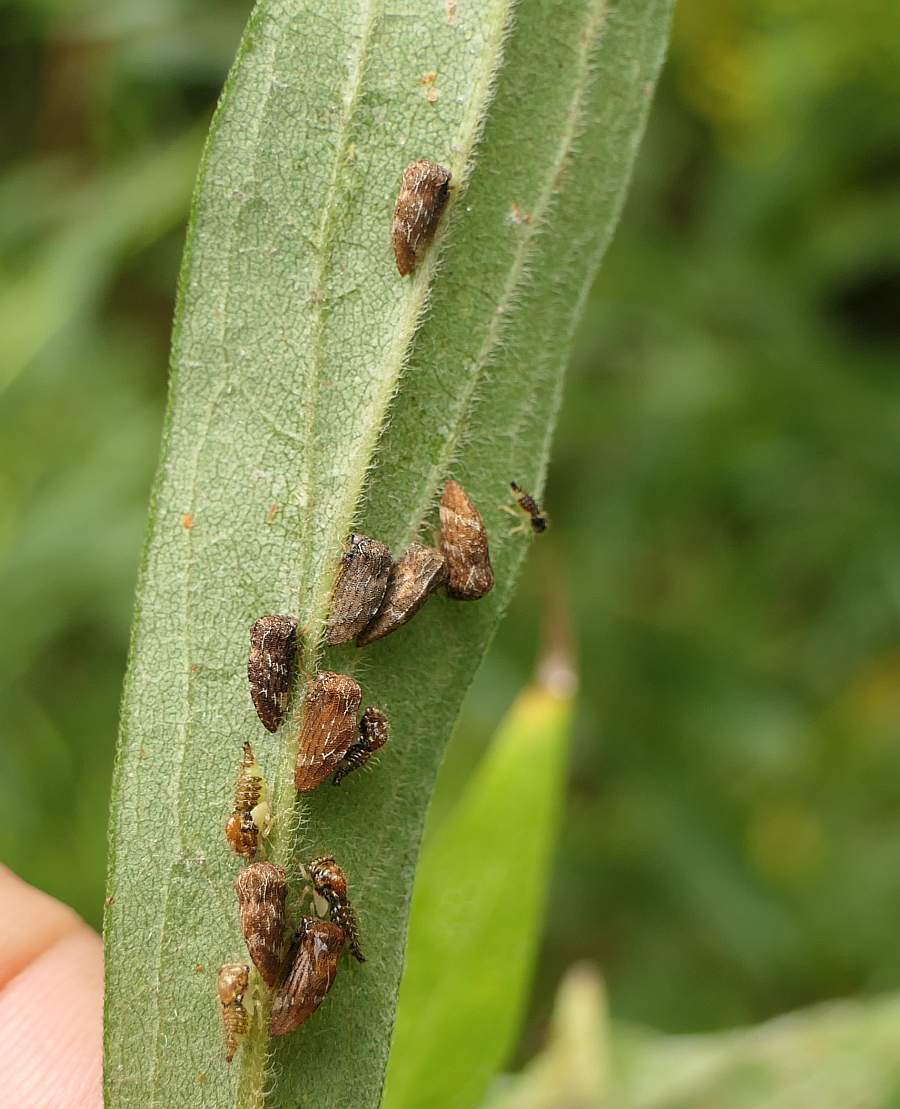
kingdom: Animalia
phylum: Arthropoda
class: Insecta
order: Hemiptera
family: Membracidae
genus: Publilia
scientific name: Publilia concava
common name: Aster treehopper
